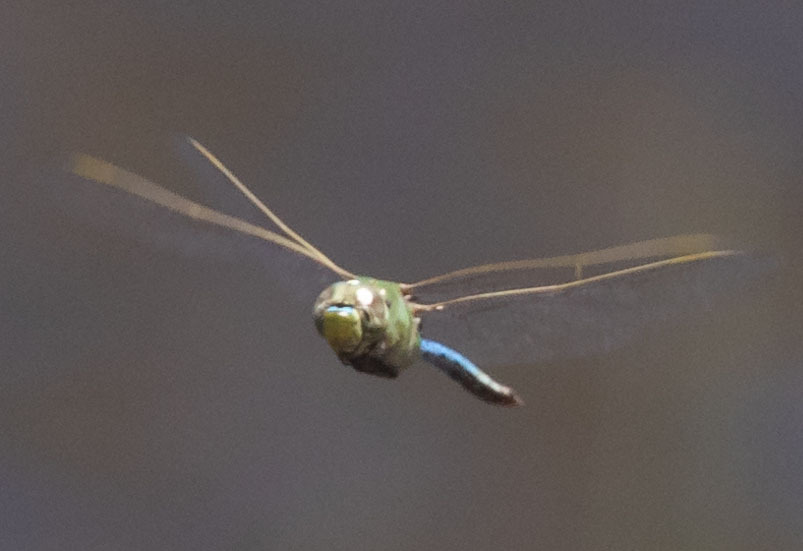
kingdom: Animalia
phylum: Arthropoda
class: Insecta
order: Odonata
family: Aeshnidae
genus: Anax
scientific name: Anax junius
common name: Common green darner
